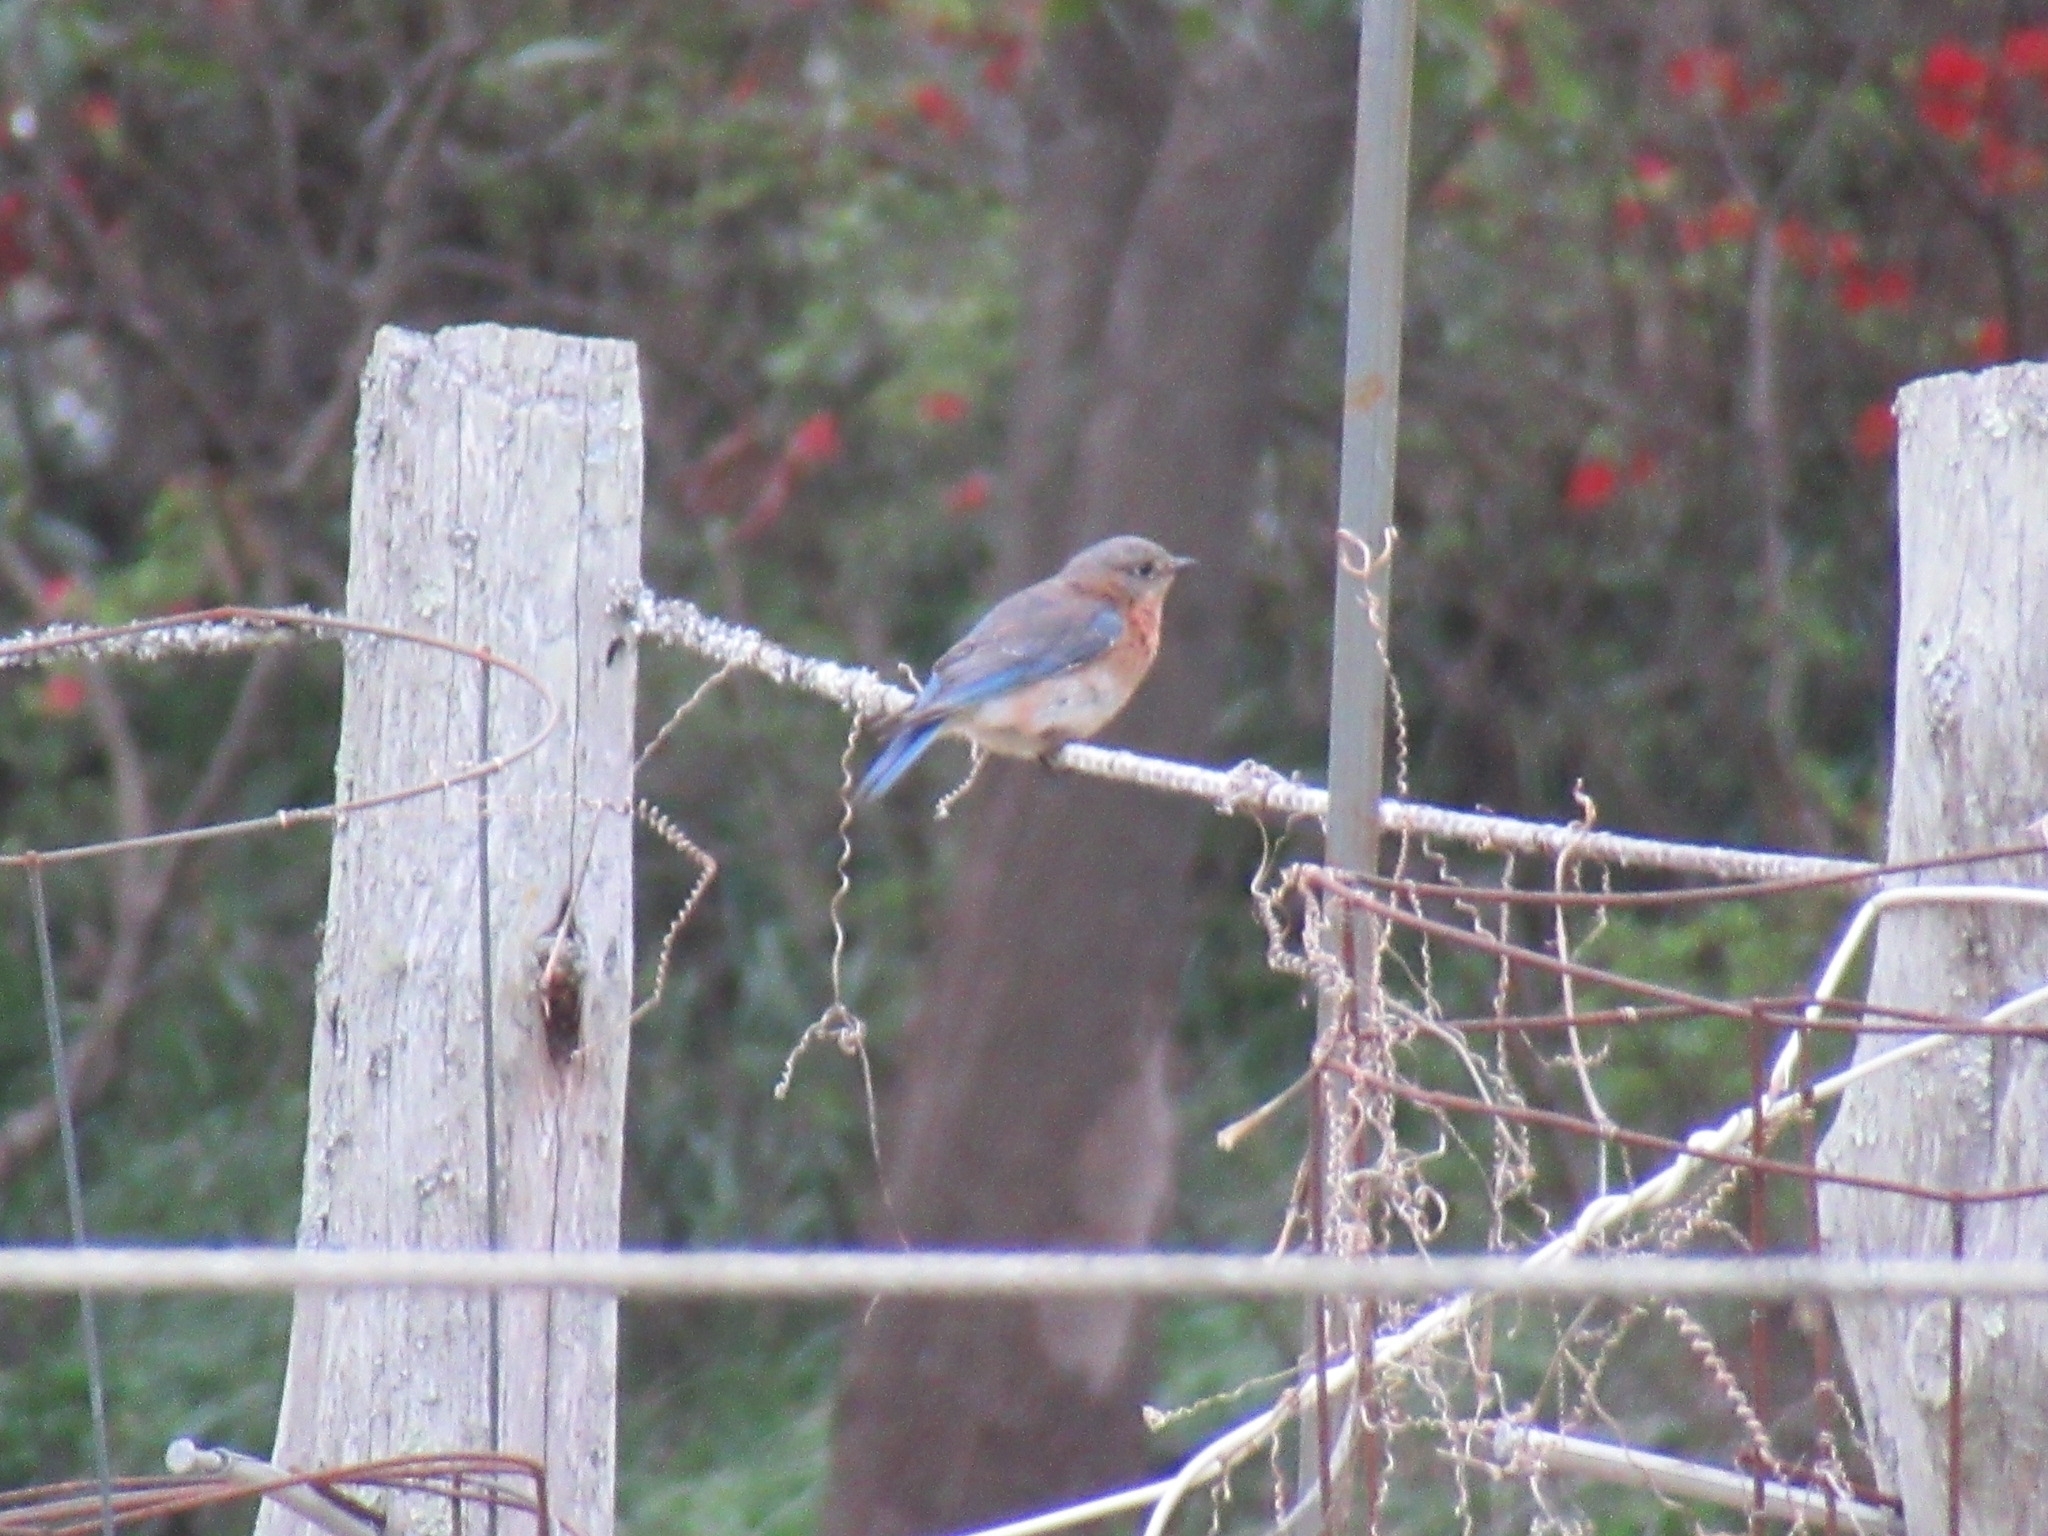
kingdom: Animalia
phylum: Chordata
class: Aves
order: Passeriformes
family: Turdidae
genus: Sialia
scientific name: Sialia sialis
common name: Eastern bluebird
